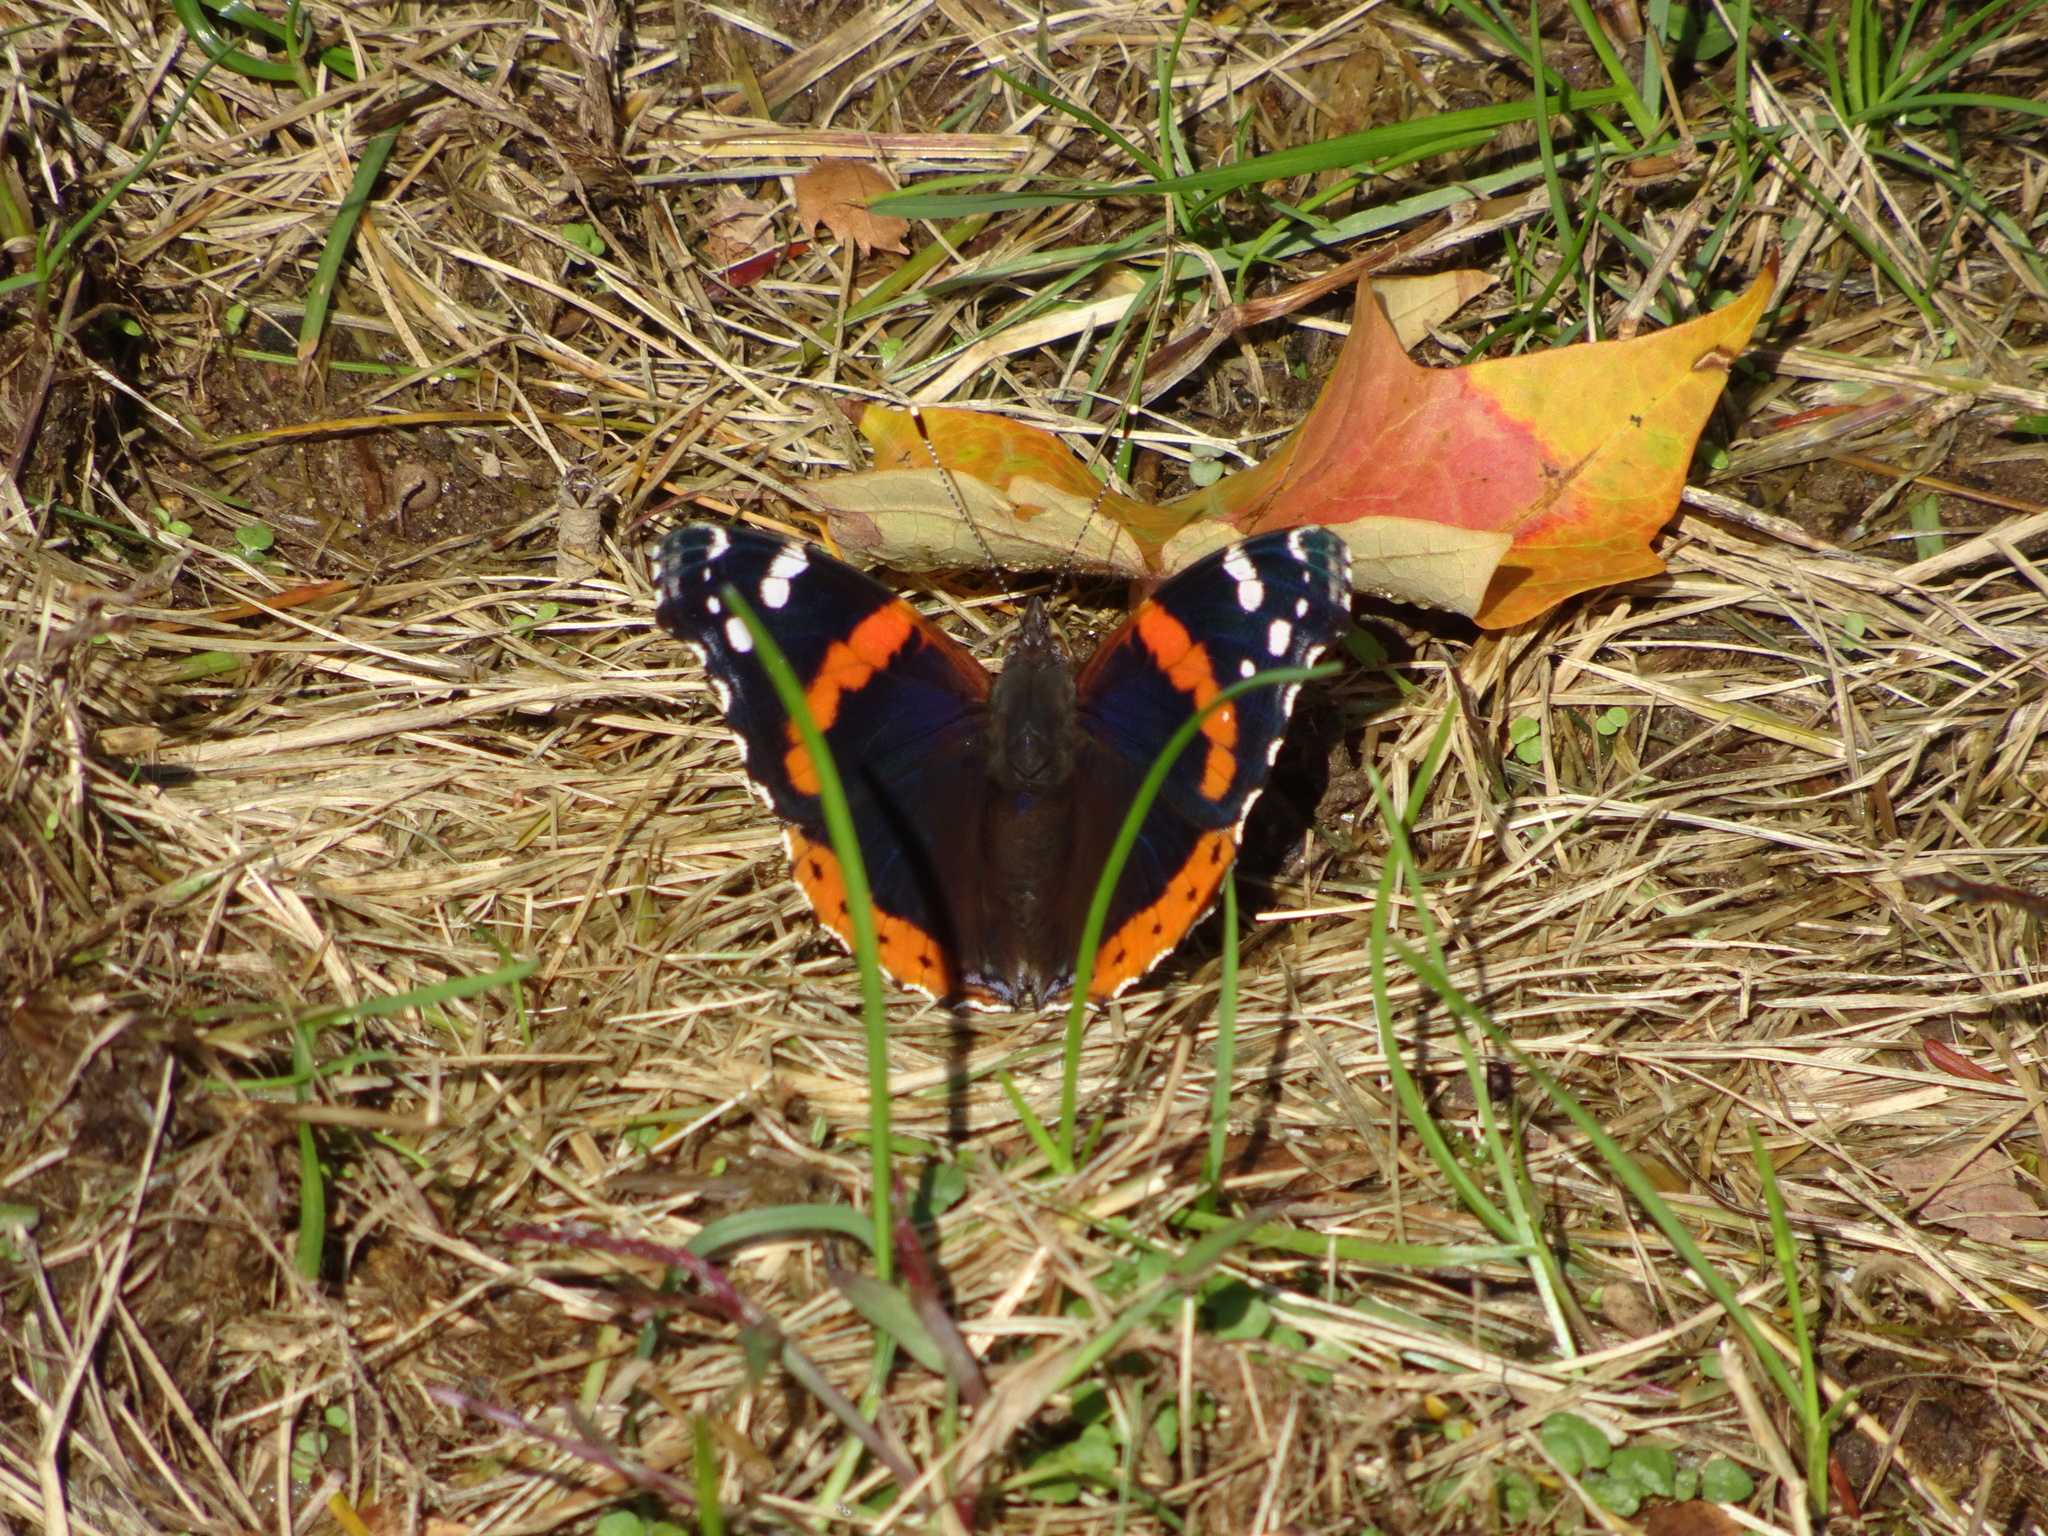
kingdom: Animalia
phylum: Arthropoda
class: Insecta
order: Lepidoptera
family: Nymphalidae
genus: Vanessa
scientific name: Vanessa atalanta
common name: Red admiral
